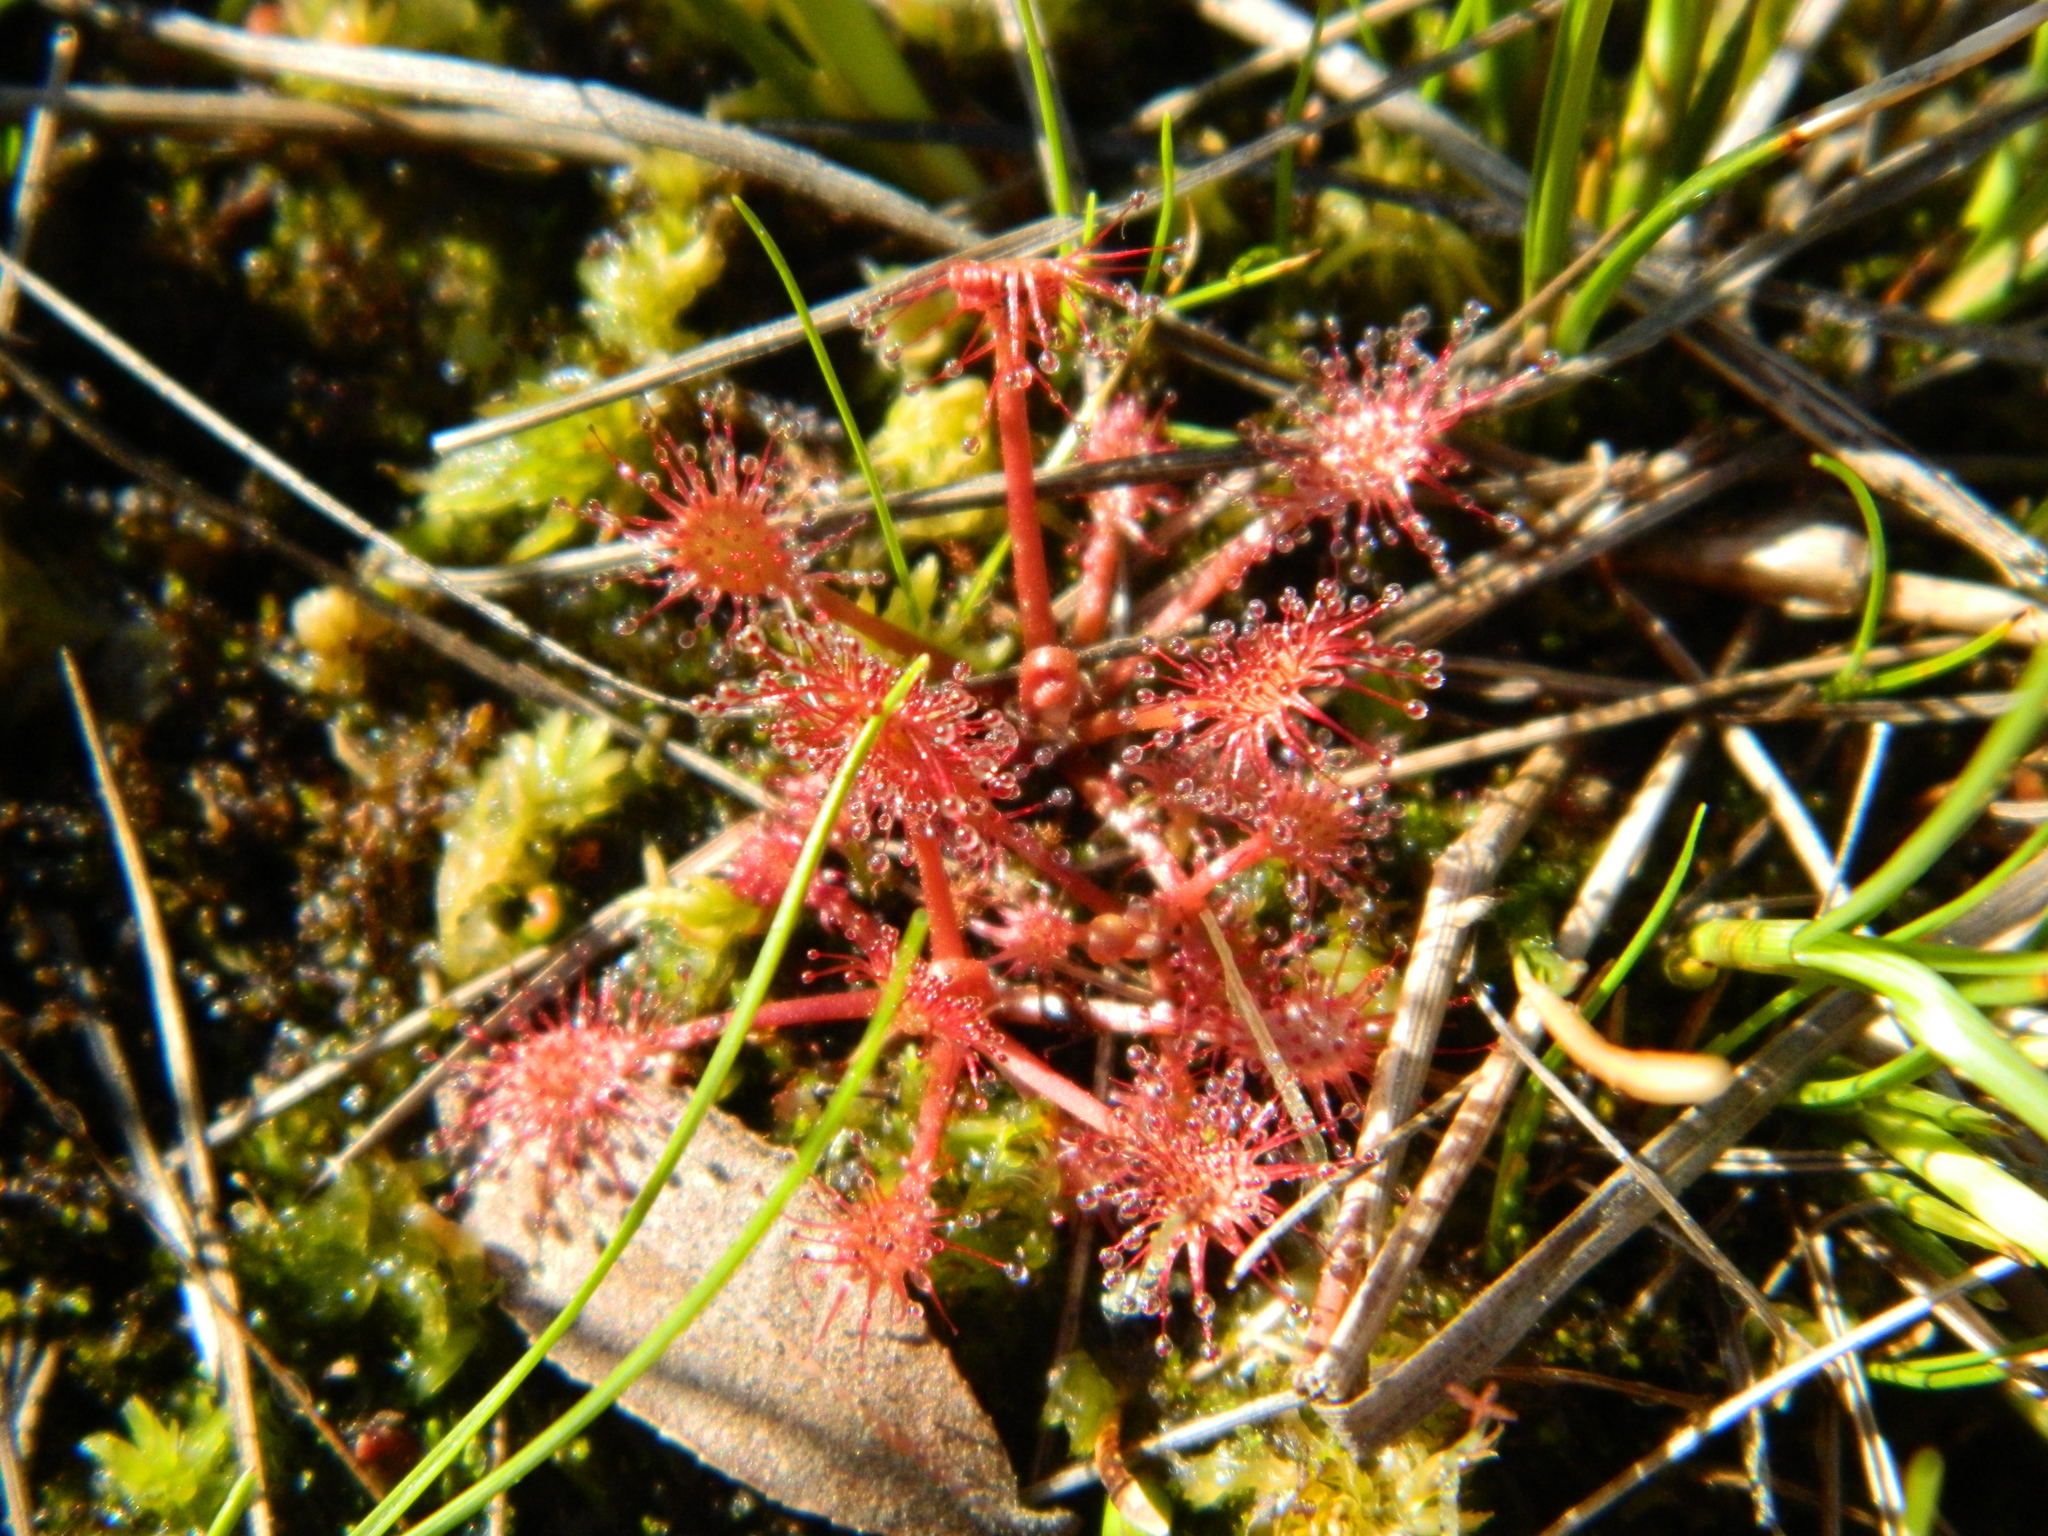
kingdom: Plantae
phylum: Tracheophyta
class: Magnoliopsida
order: Caryophyllales
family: Droseraceae
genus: Drosera
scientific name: Drosera intermedia
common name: Oblong-leaved sundew
